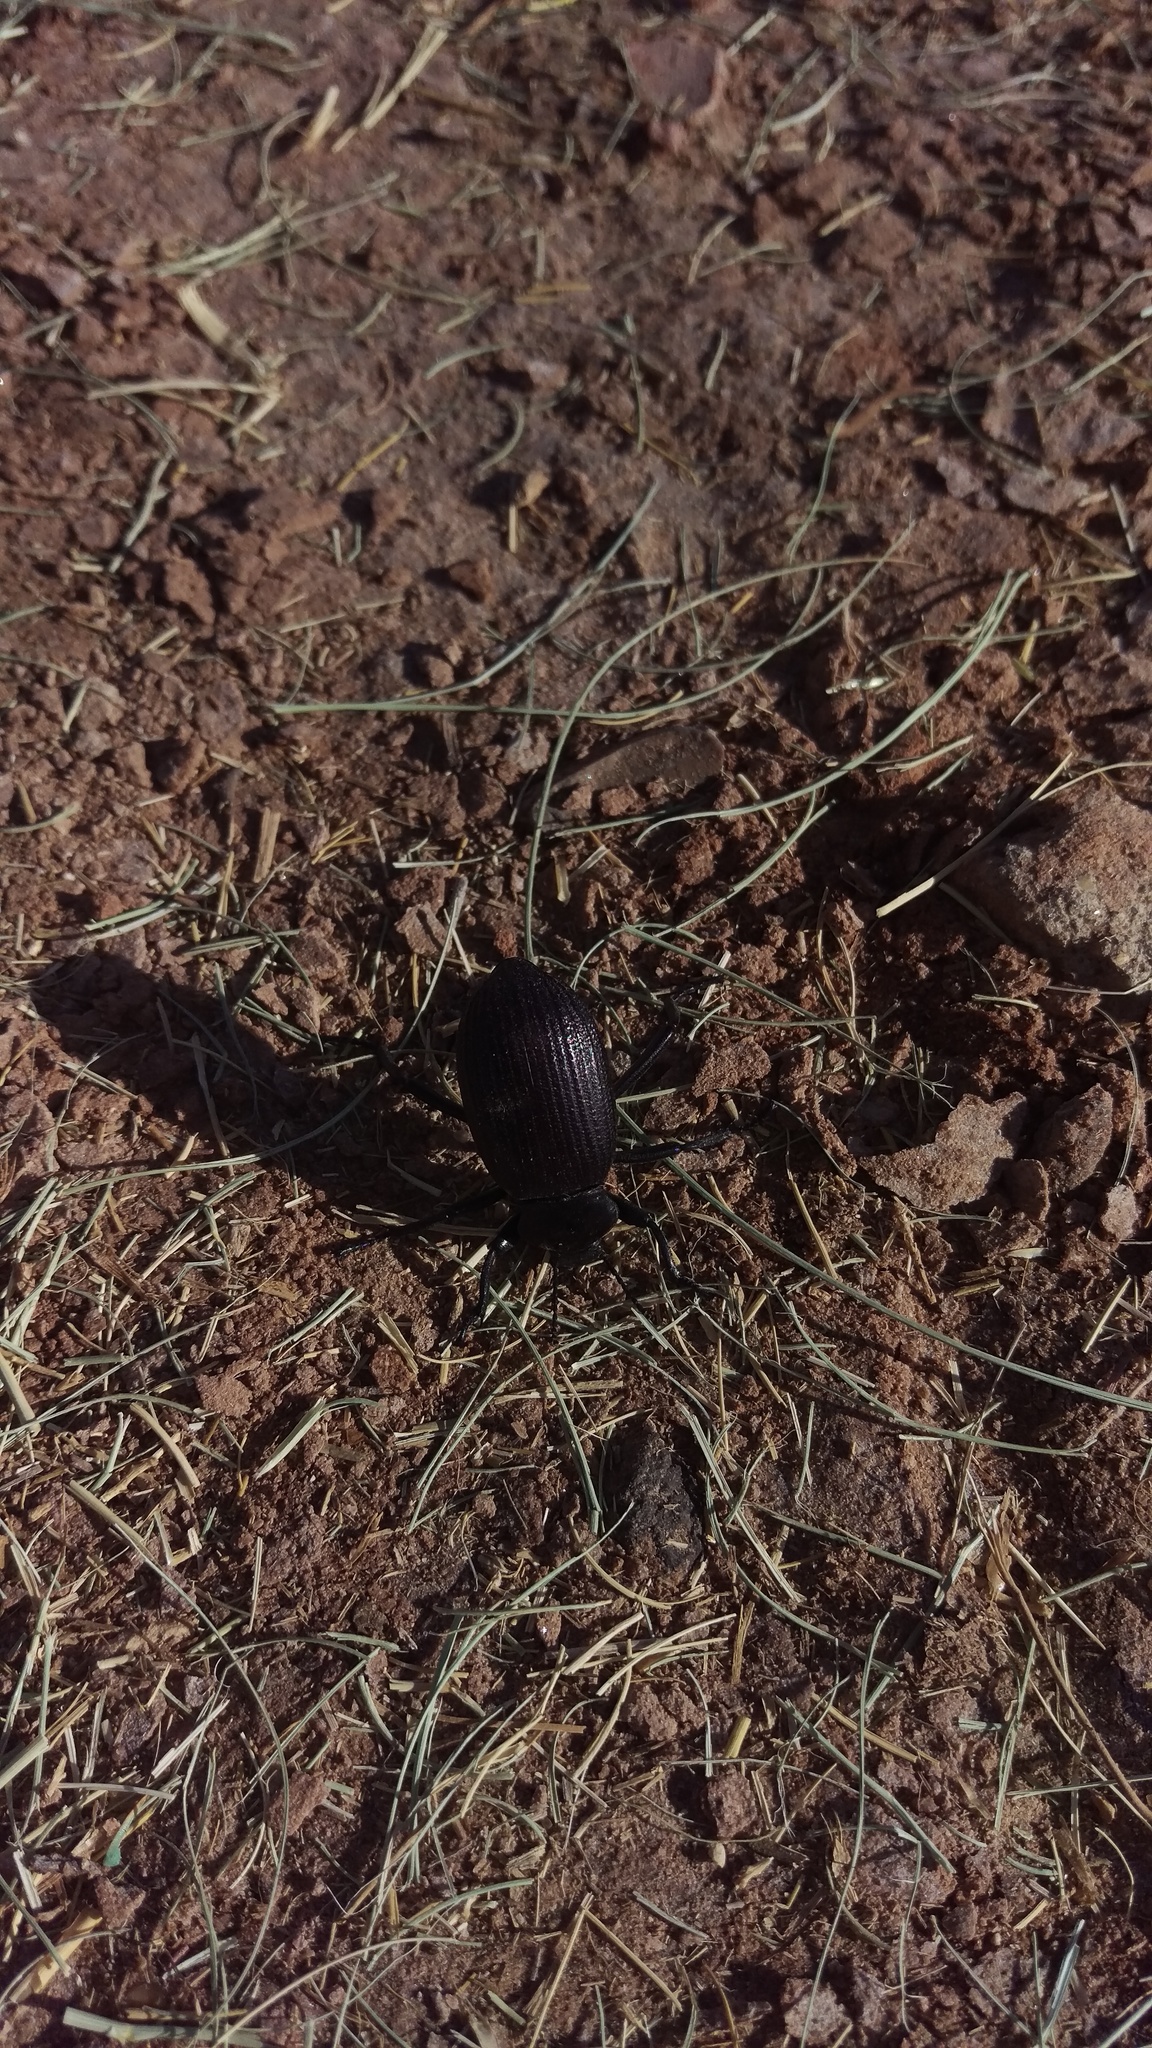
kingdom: Animalia
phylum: Arthropoda
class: Insecta
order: Coleoptera
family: Tenebrionidae
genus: Eleodes
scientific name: Eleodes obscura
